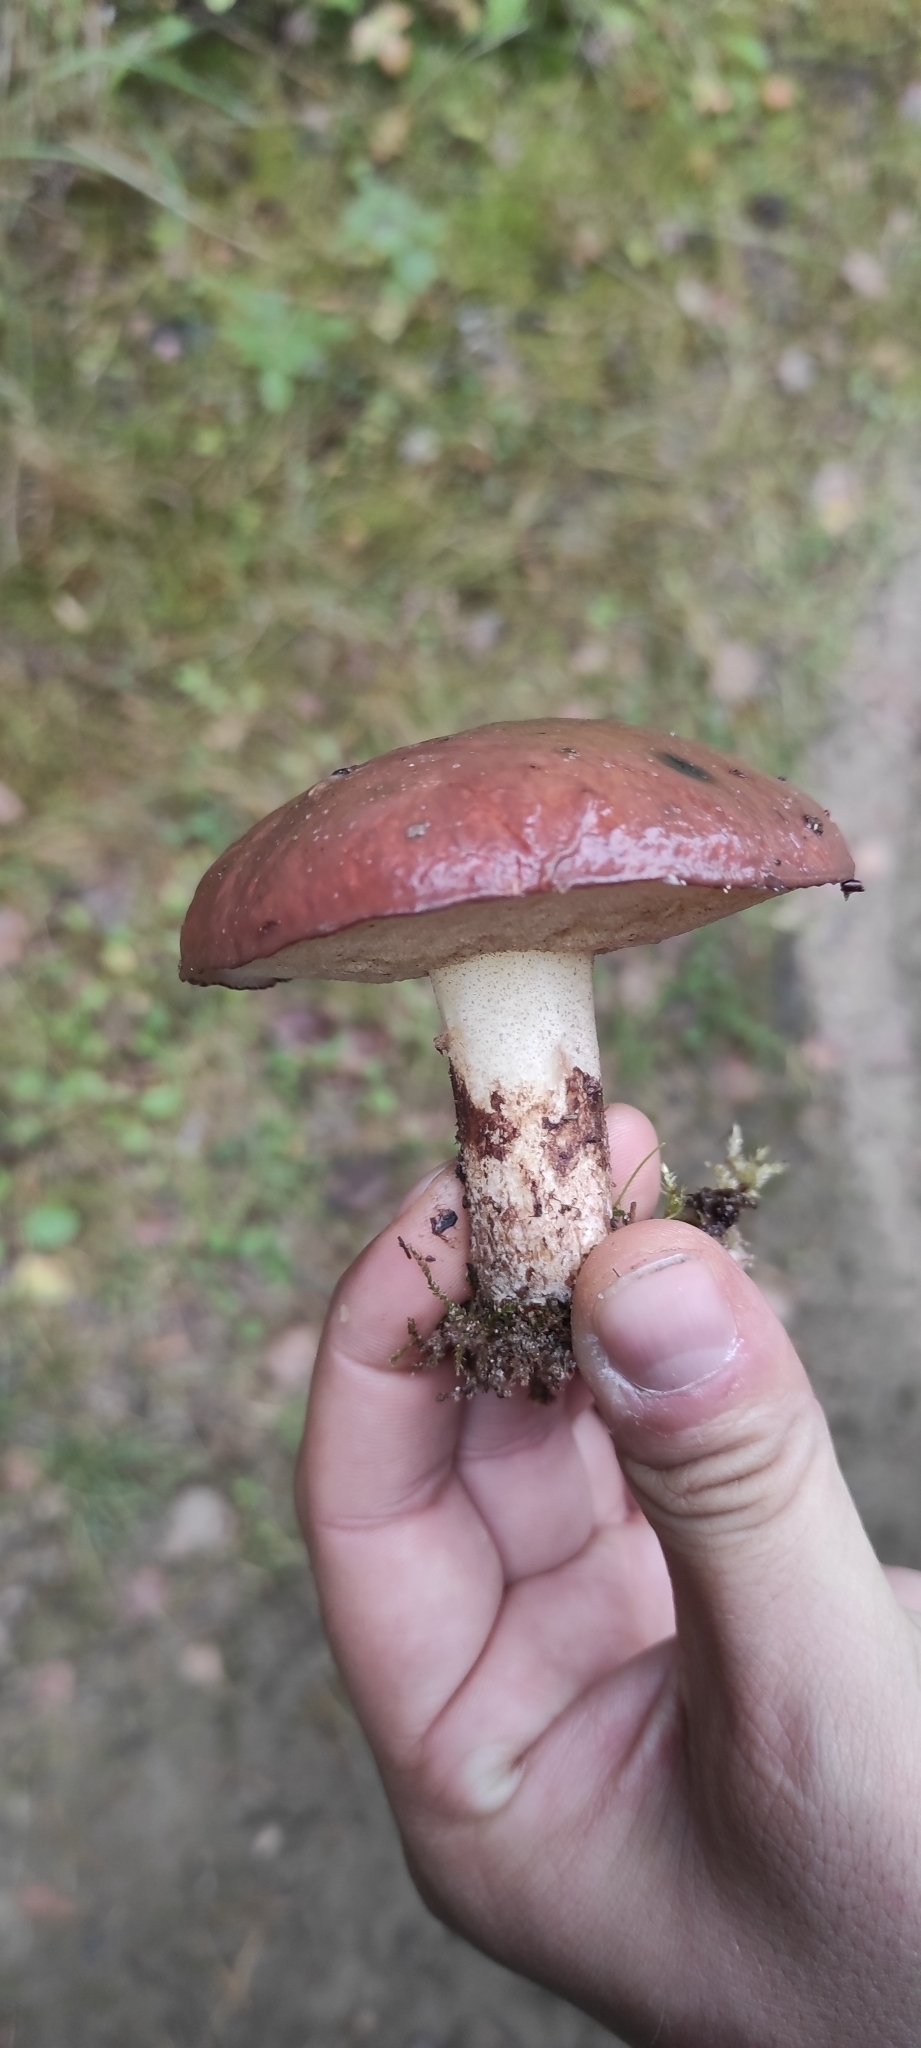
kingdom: Fungi
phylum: Basidiomycota
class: Agaricomycetes
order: Boletales
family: Suillaceae
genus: Suillus
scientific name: Suillus luteus
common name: Slippery jack
